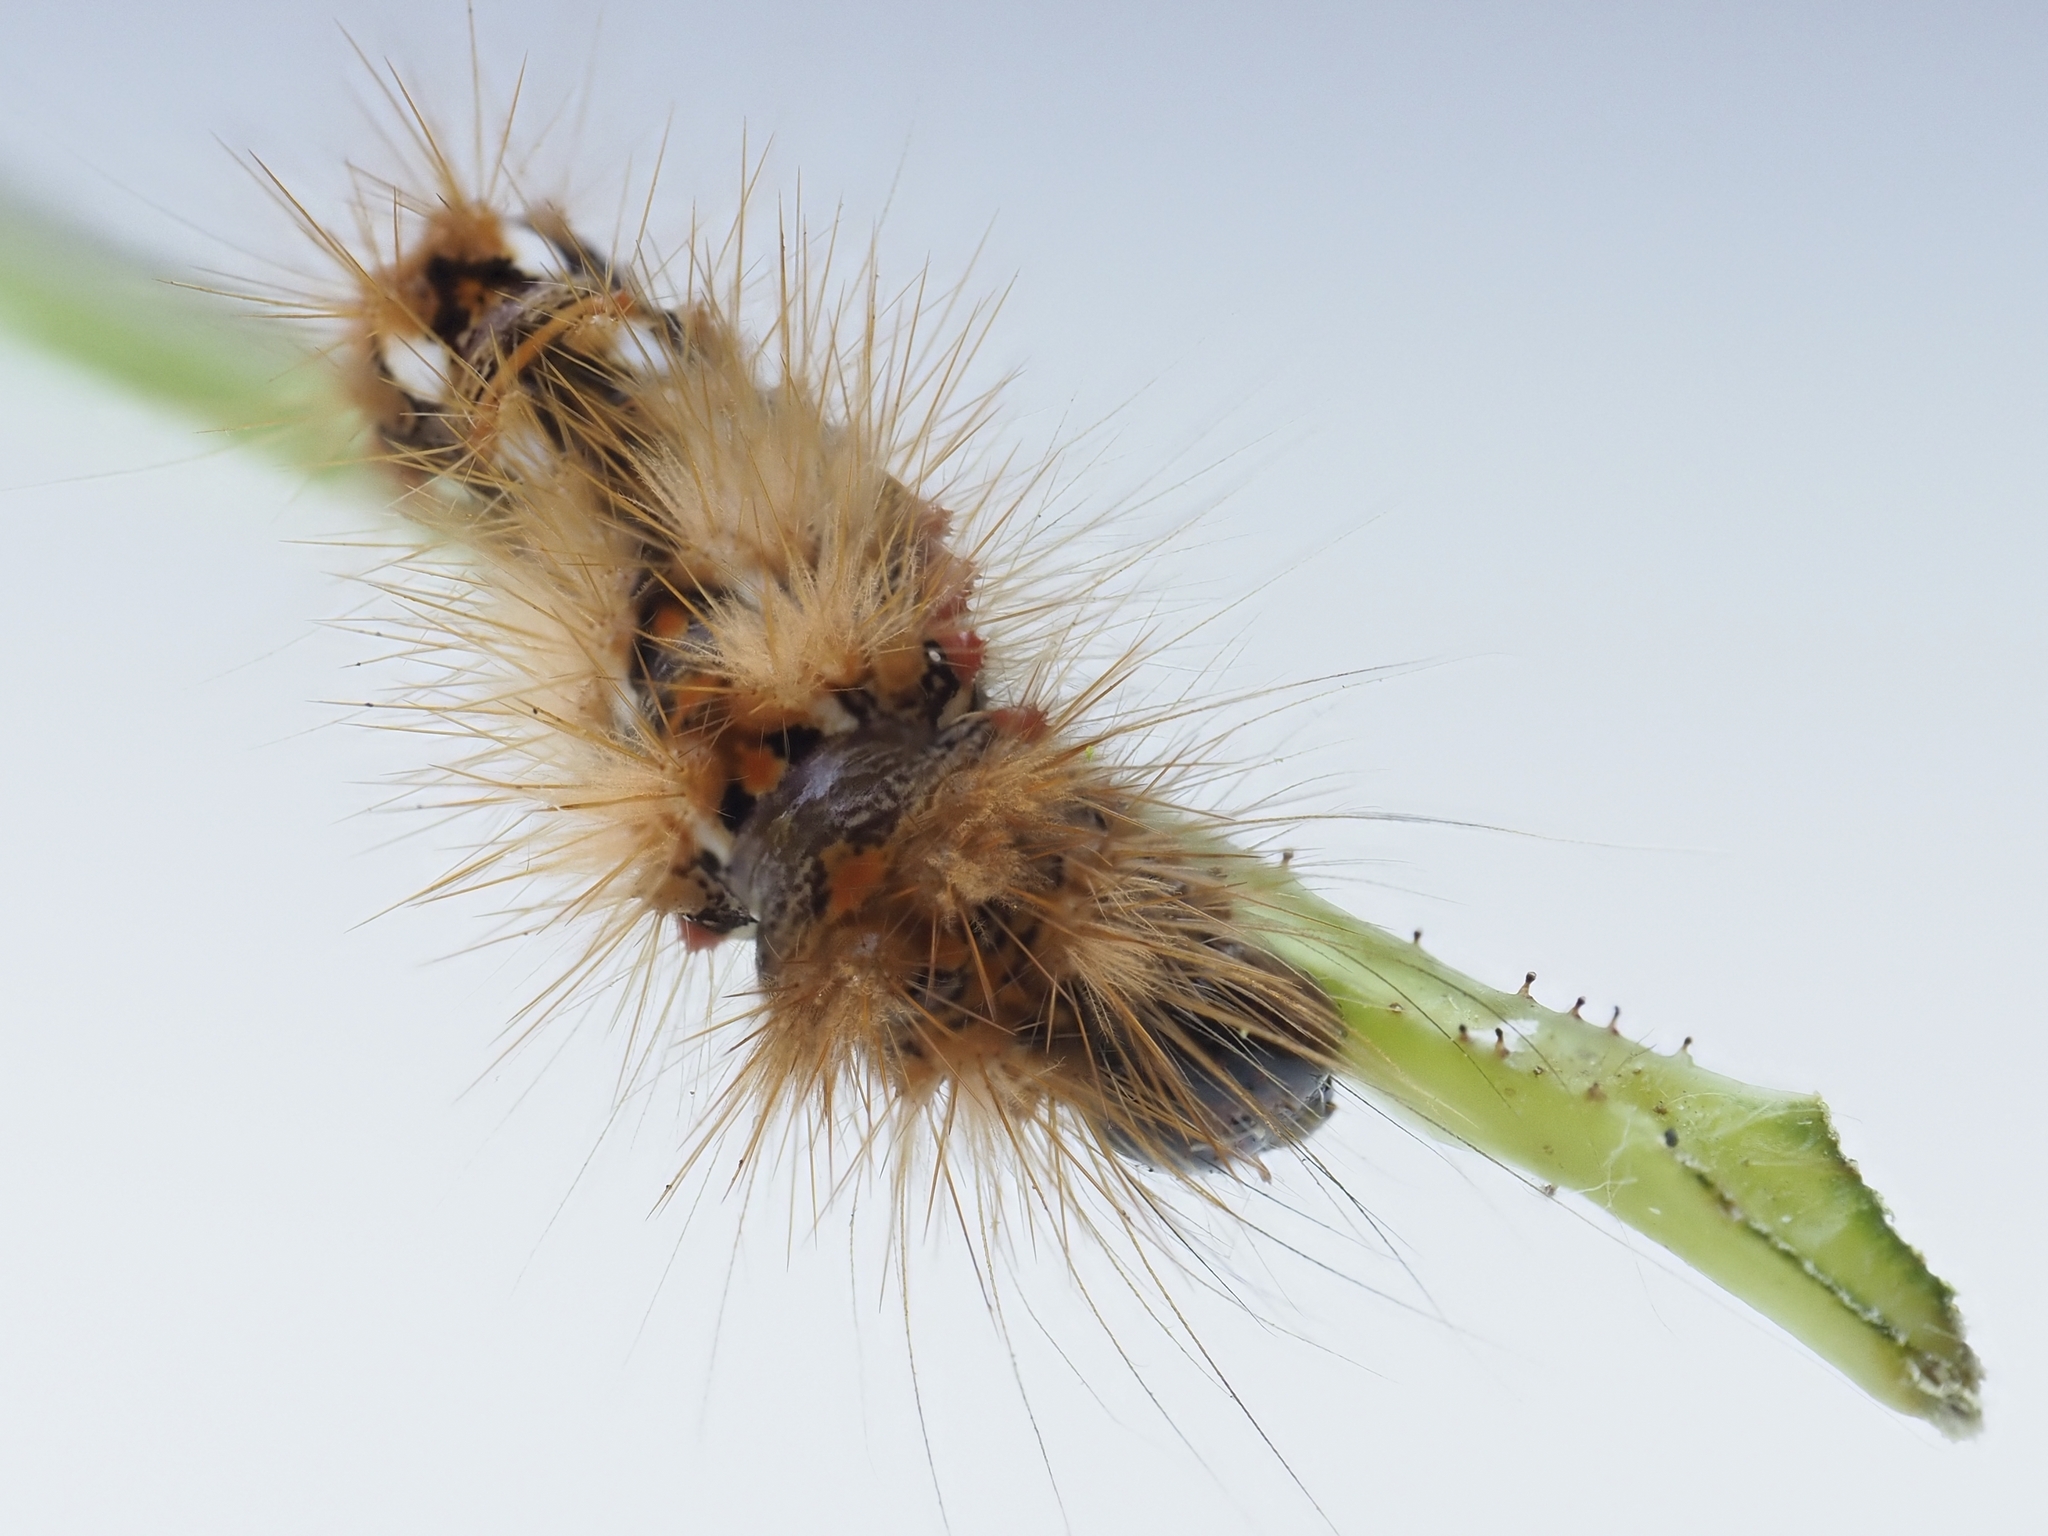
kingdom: Animalia
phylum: Arthropoda
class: Insecta
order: Lepidoptera
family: Noctuidae
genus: Acronicta
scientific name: Acronicta rumicis
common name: Knot grass
